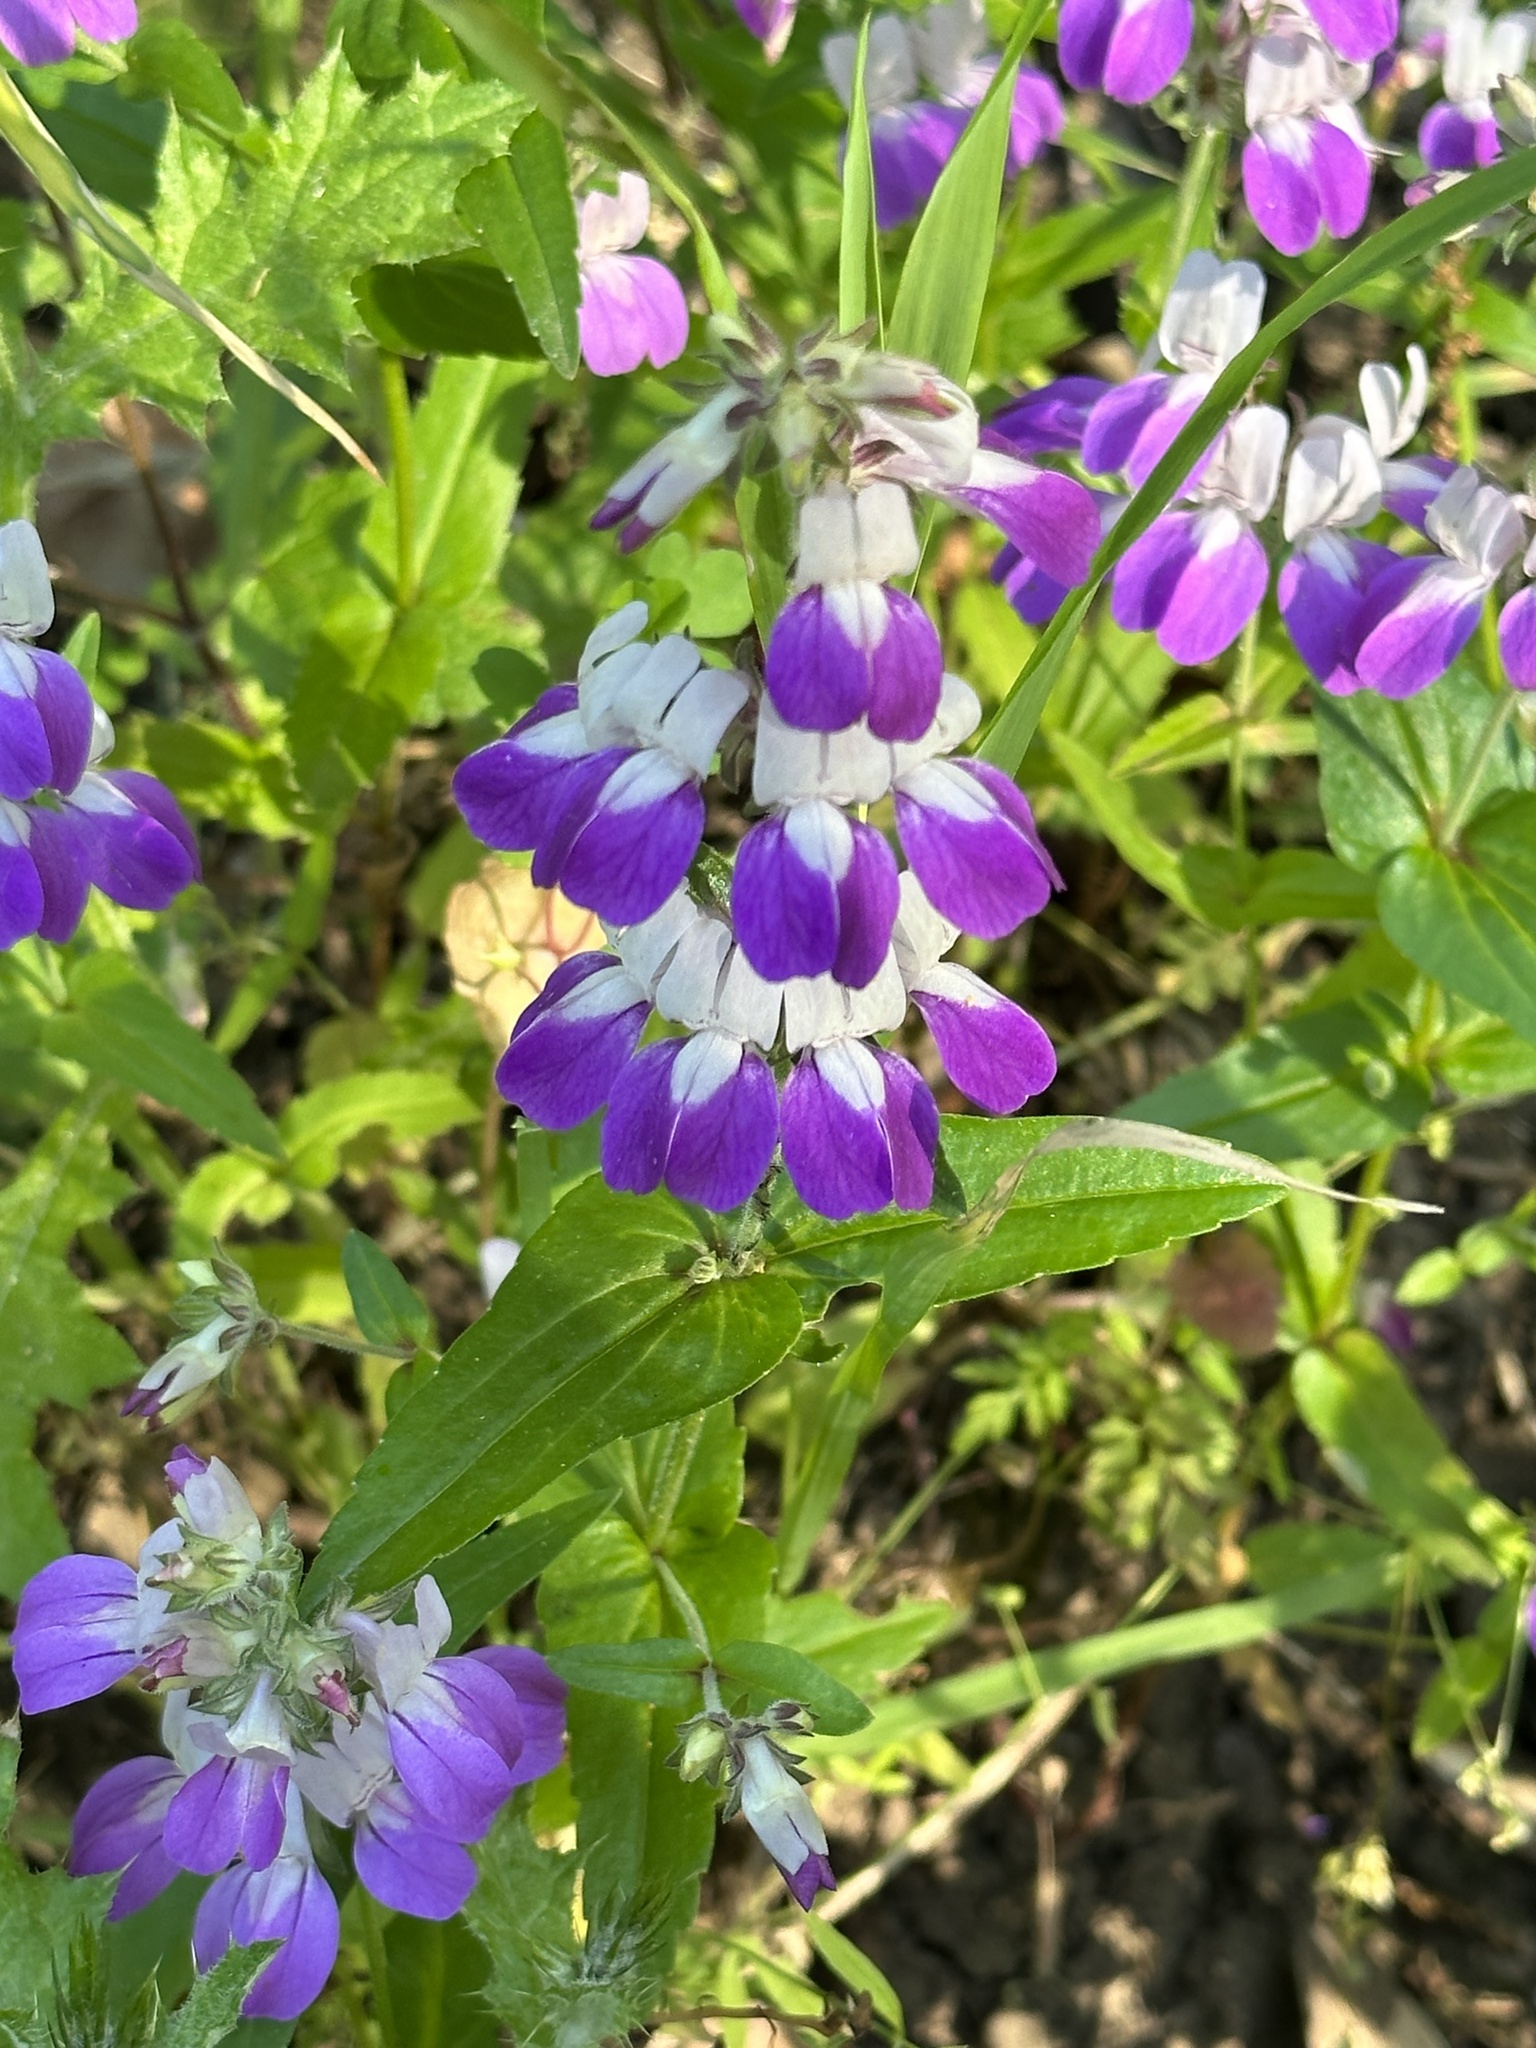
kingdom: Plantae
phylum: Tracheophyta
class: Magnoliopsida
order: Lamiales
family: Plantaginaceae
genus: Collinsia
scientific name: Collinsia heterophylla
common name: Chinese-houses
